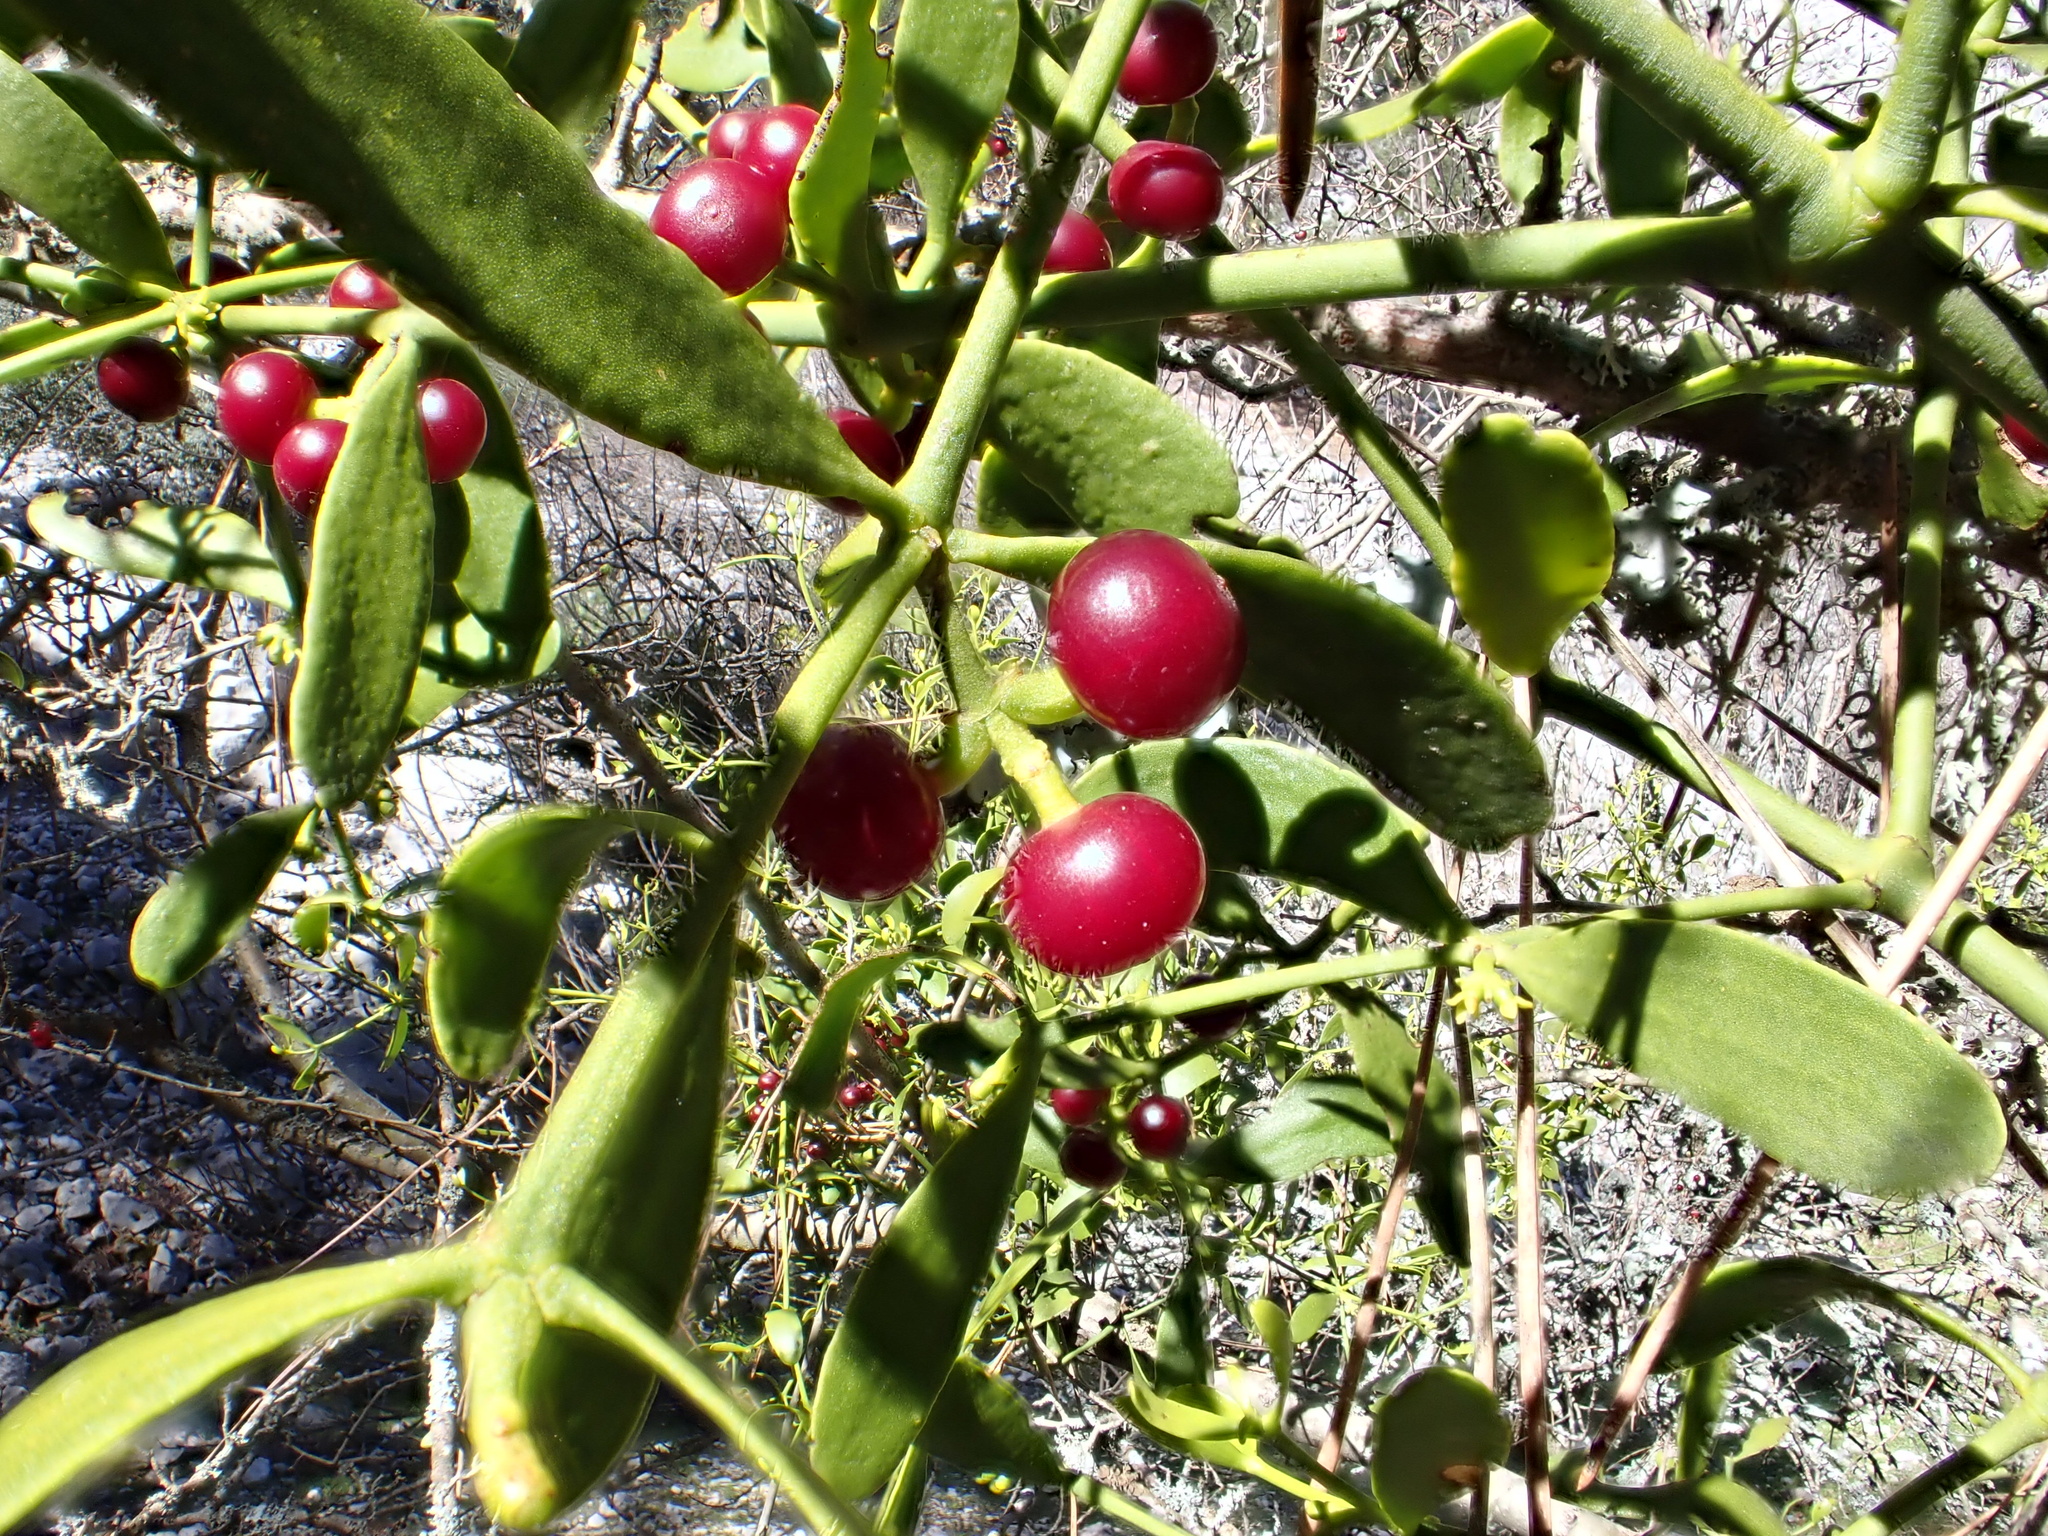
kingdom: Plantae
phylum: Tracheophyta
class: Magnoliopsida
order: Santalales
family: Viscaceae
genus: Viscum
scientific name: Viscum cruciatum
